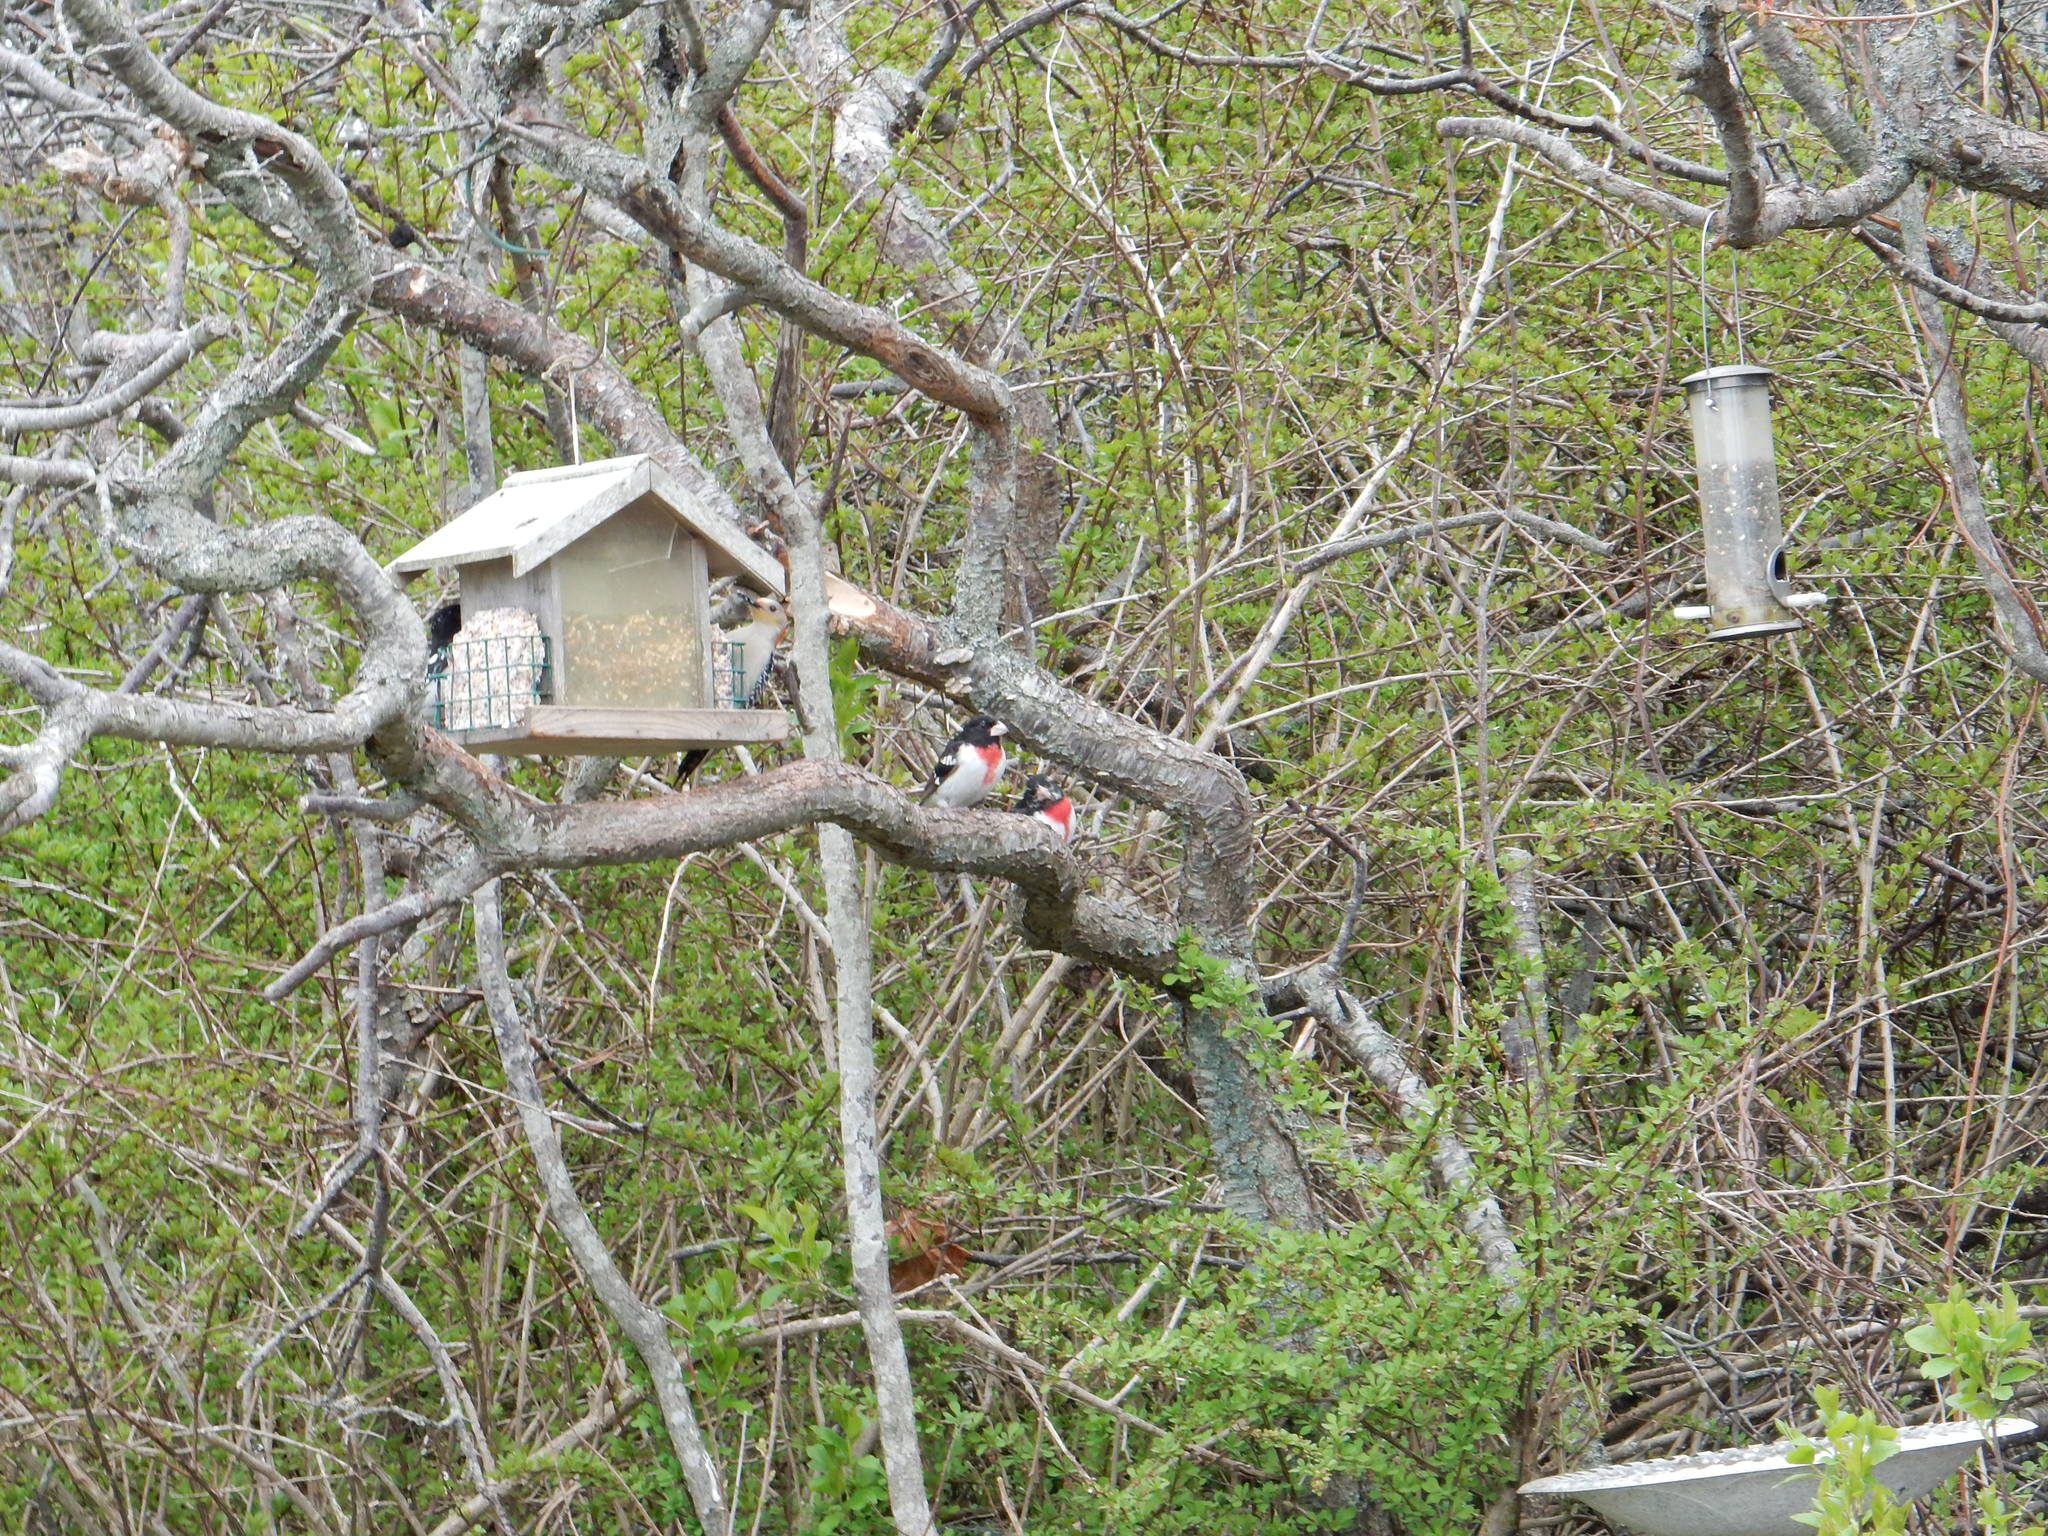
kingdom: Animalia
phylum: Chordata
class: Aves
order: Passeriformes
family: Cardinalidae
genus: Pheucticus
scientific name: Pheucticus ludovicianus
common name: Rose-breasted grosbeak
